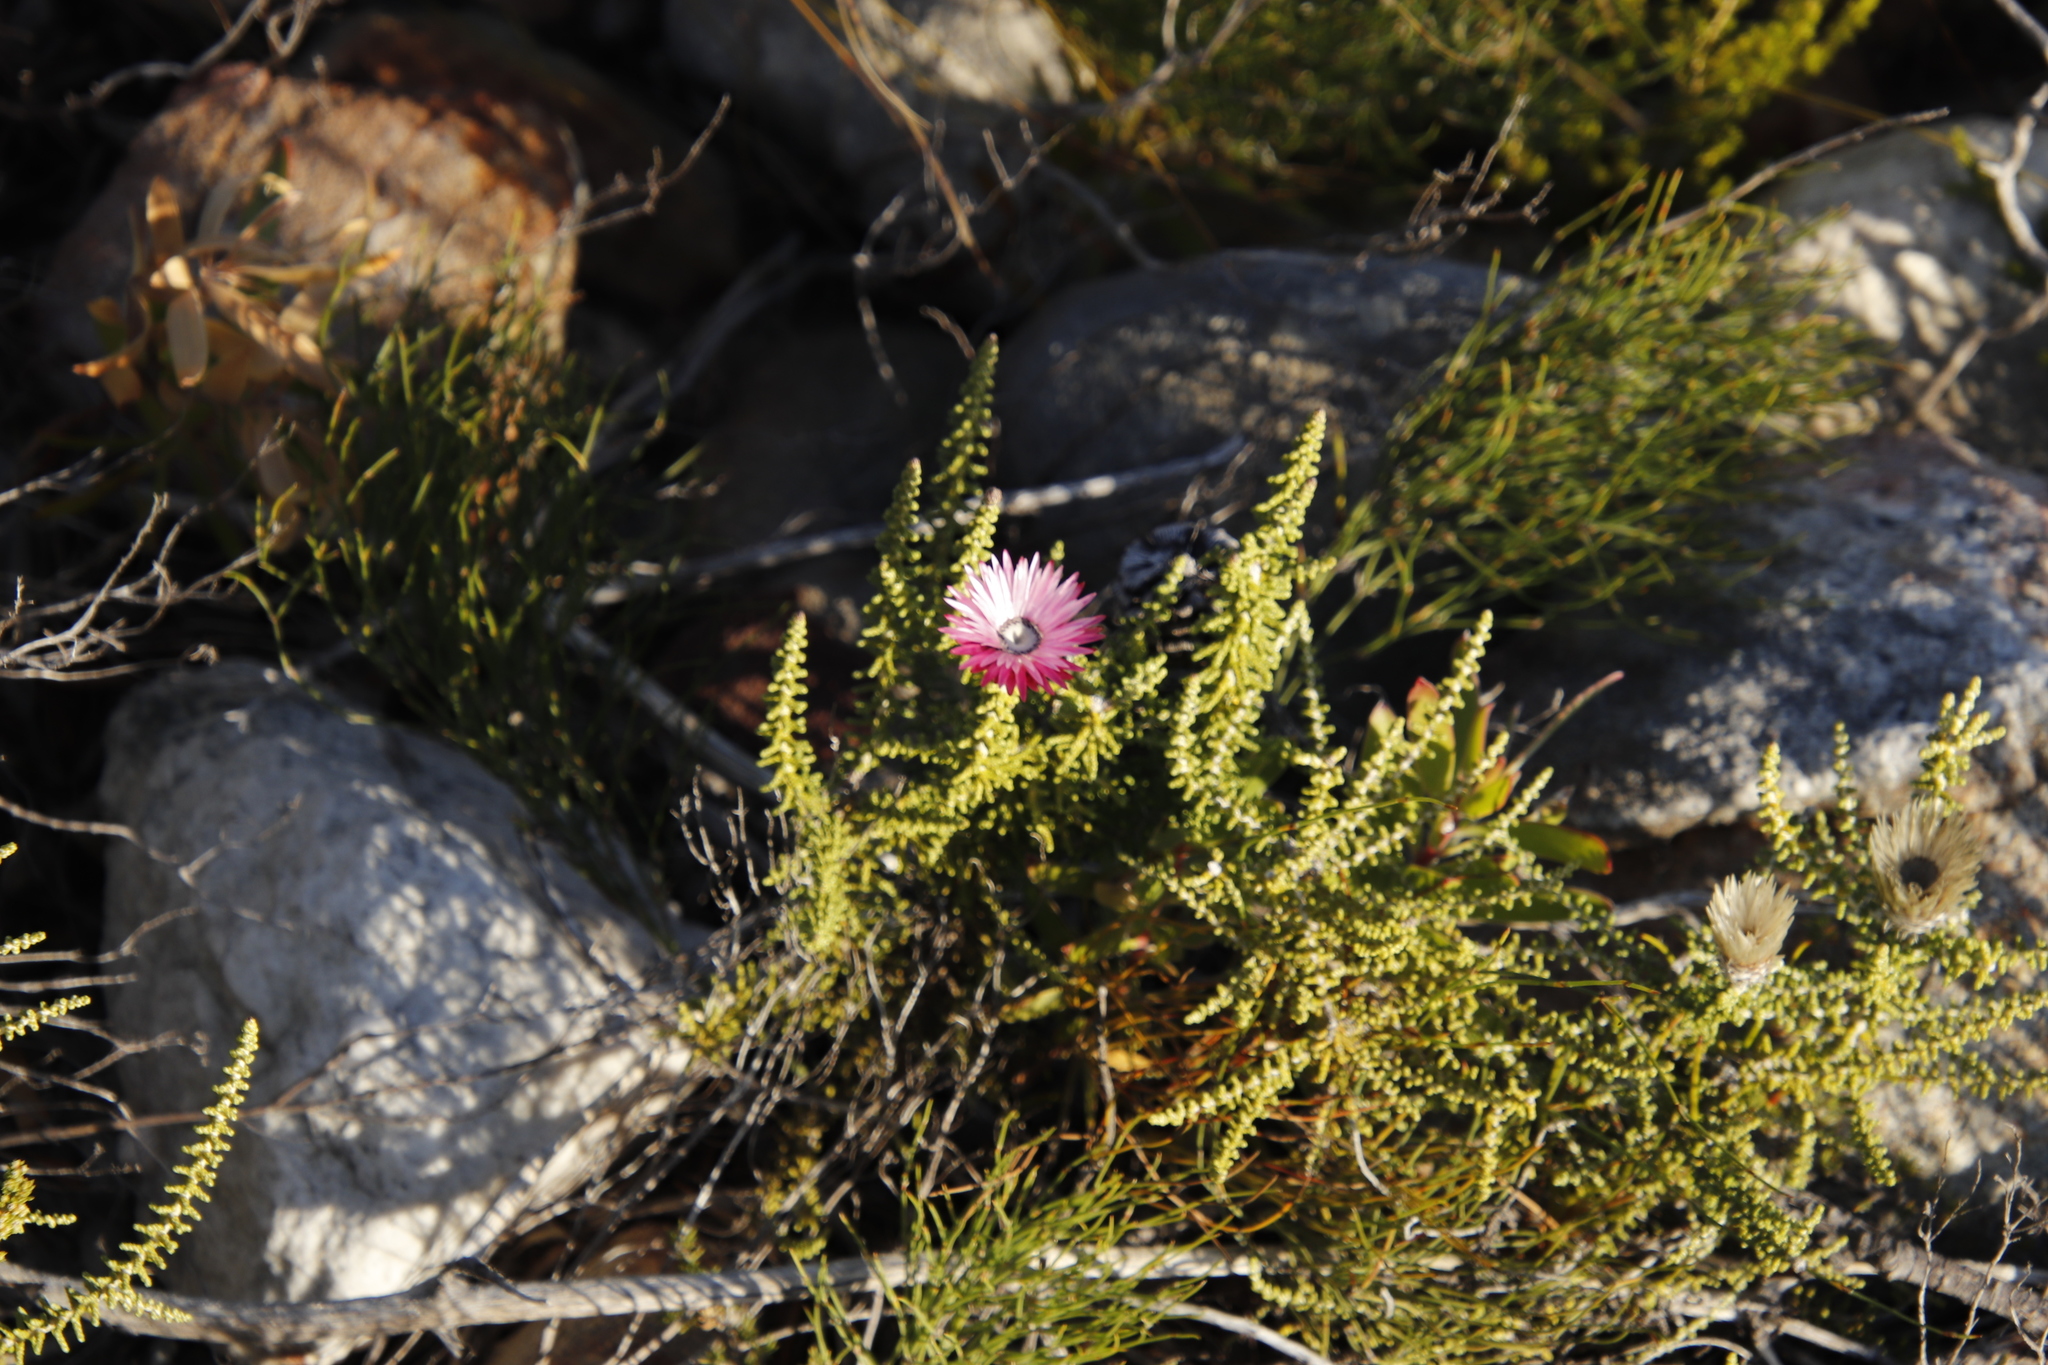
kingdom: Plantae
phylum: Tracheophyta
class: Magnoliopsida
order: Asterales
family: Asteraceae
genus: Phaenocoma
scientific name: Phaenocoma prolifera
